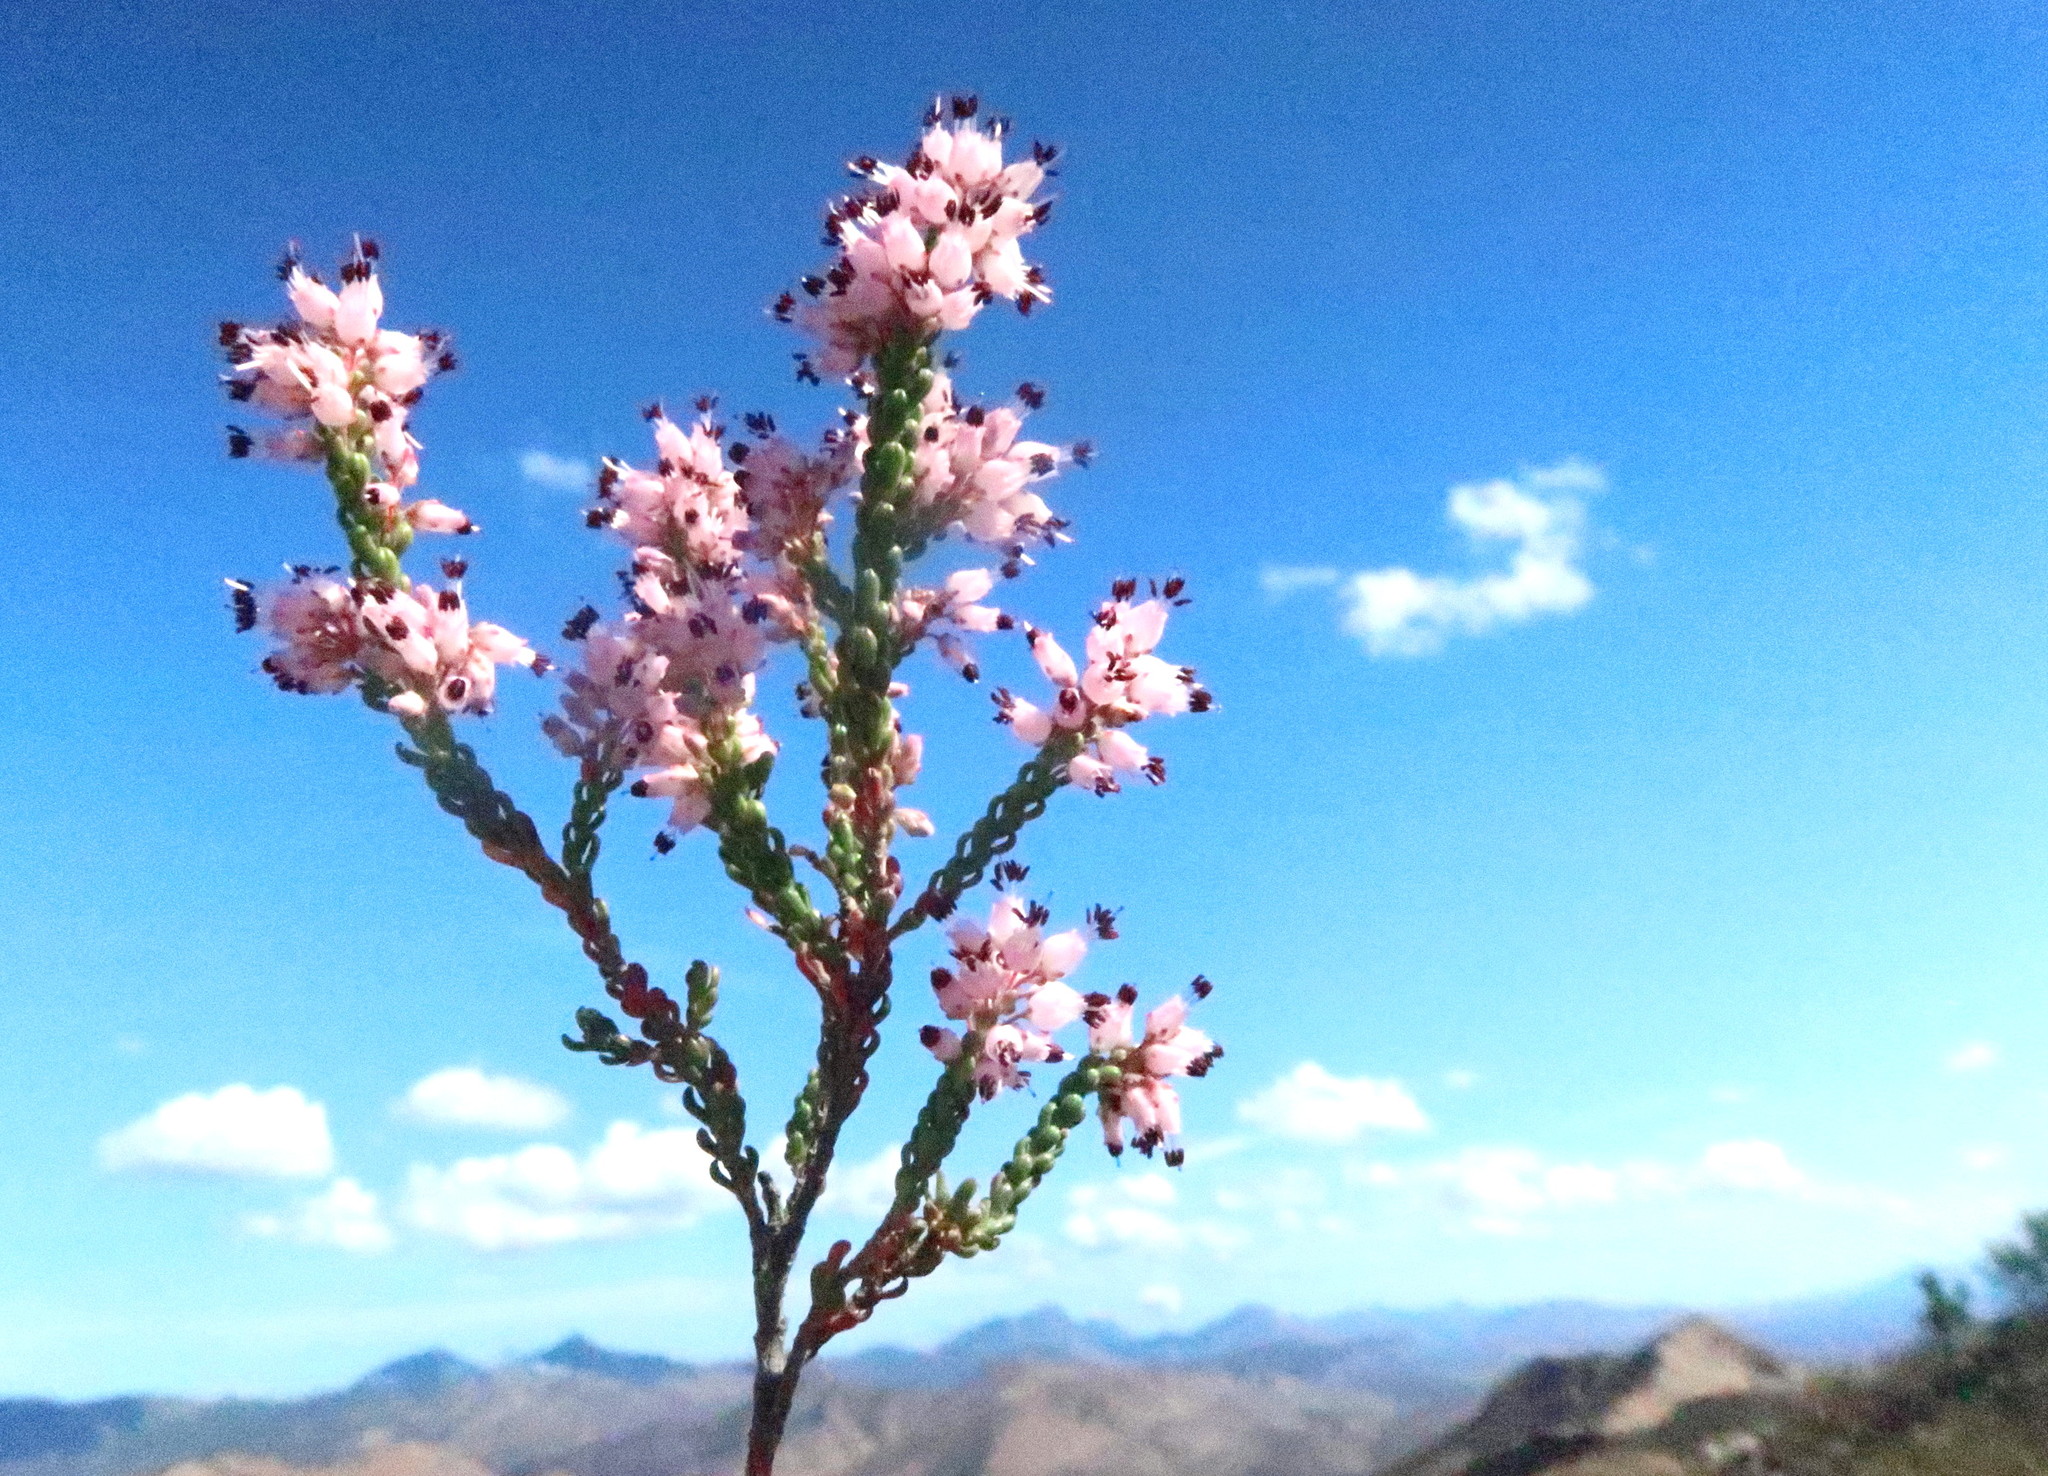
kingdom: Plantae
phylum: Tracheophyta
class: Magnoliopsida
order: Ericales
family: Ericaceae
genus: Erica
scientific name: Erica petraea
